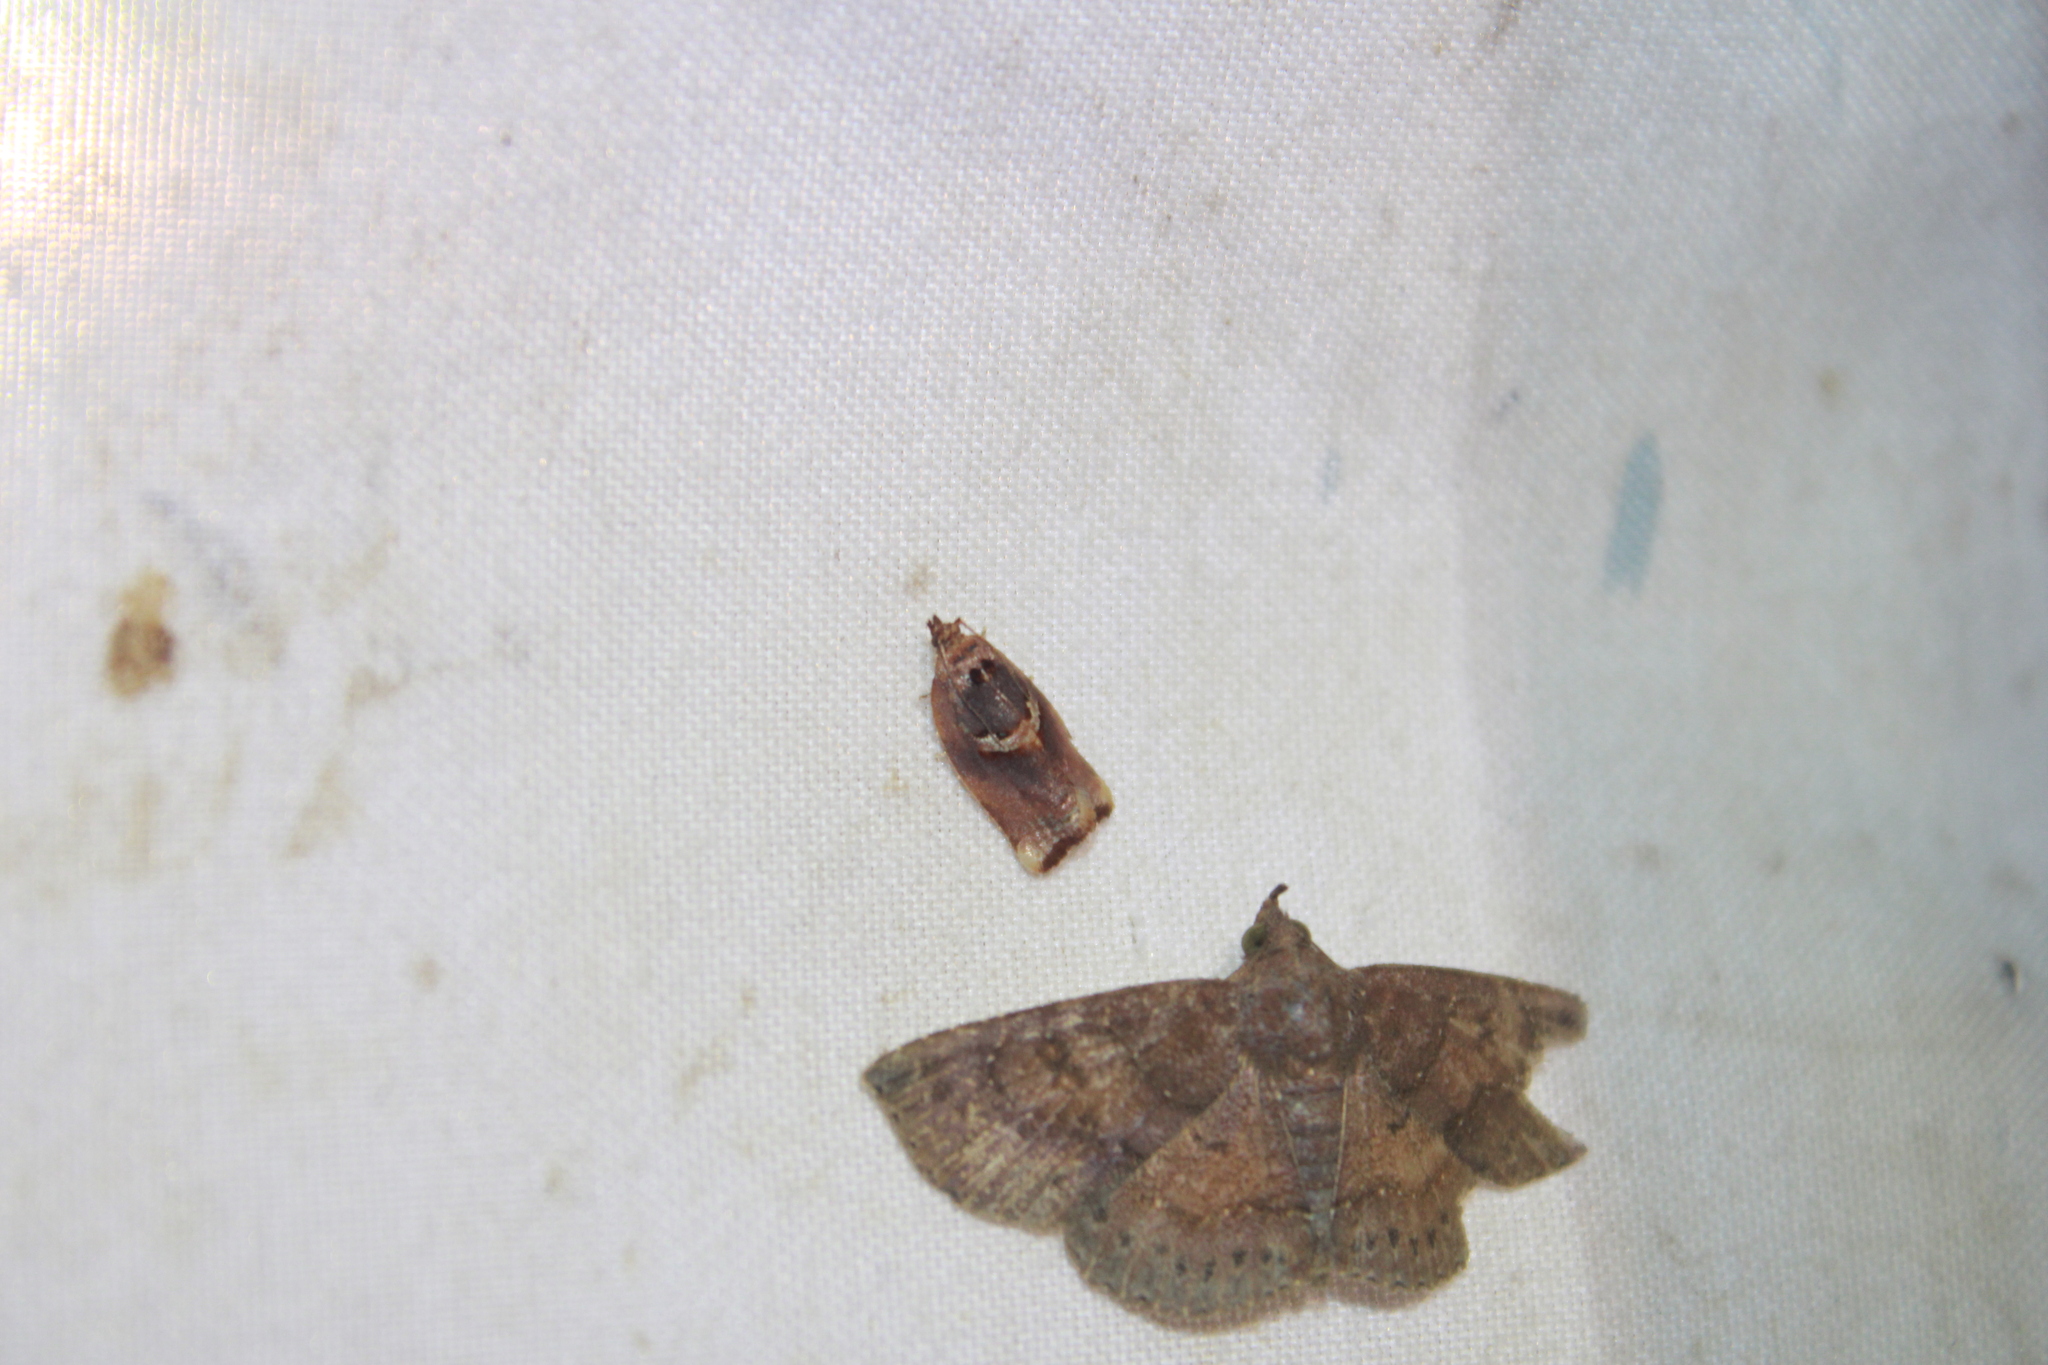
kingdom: Animalia
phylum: Arthropoda
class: Insecta
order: Lepidoptera
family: Tortricidae
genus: Argyrotaenia
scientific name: Argyrotaenia amatana
